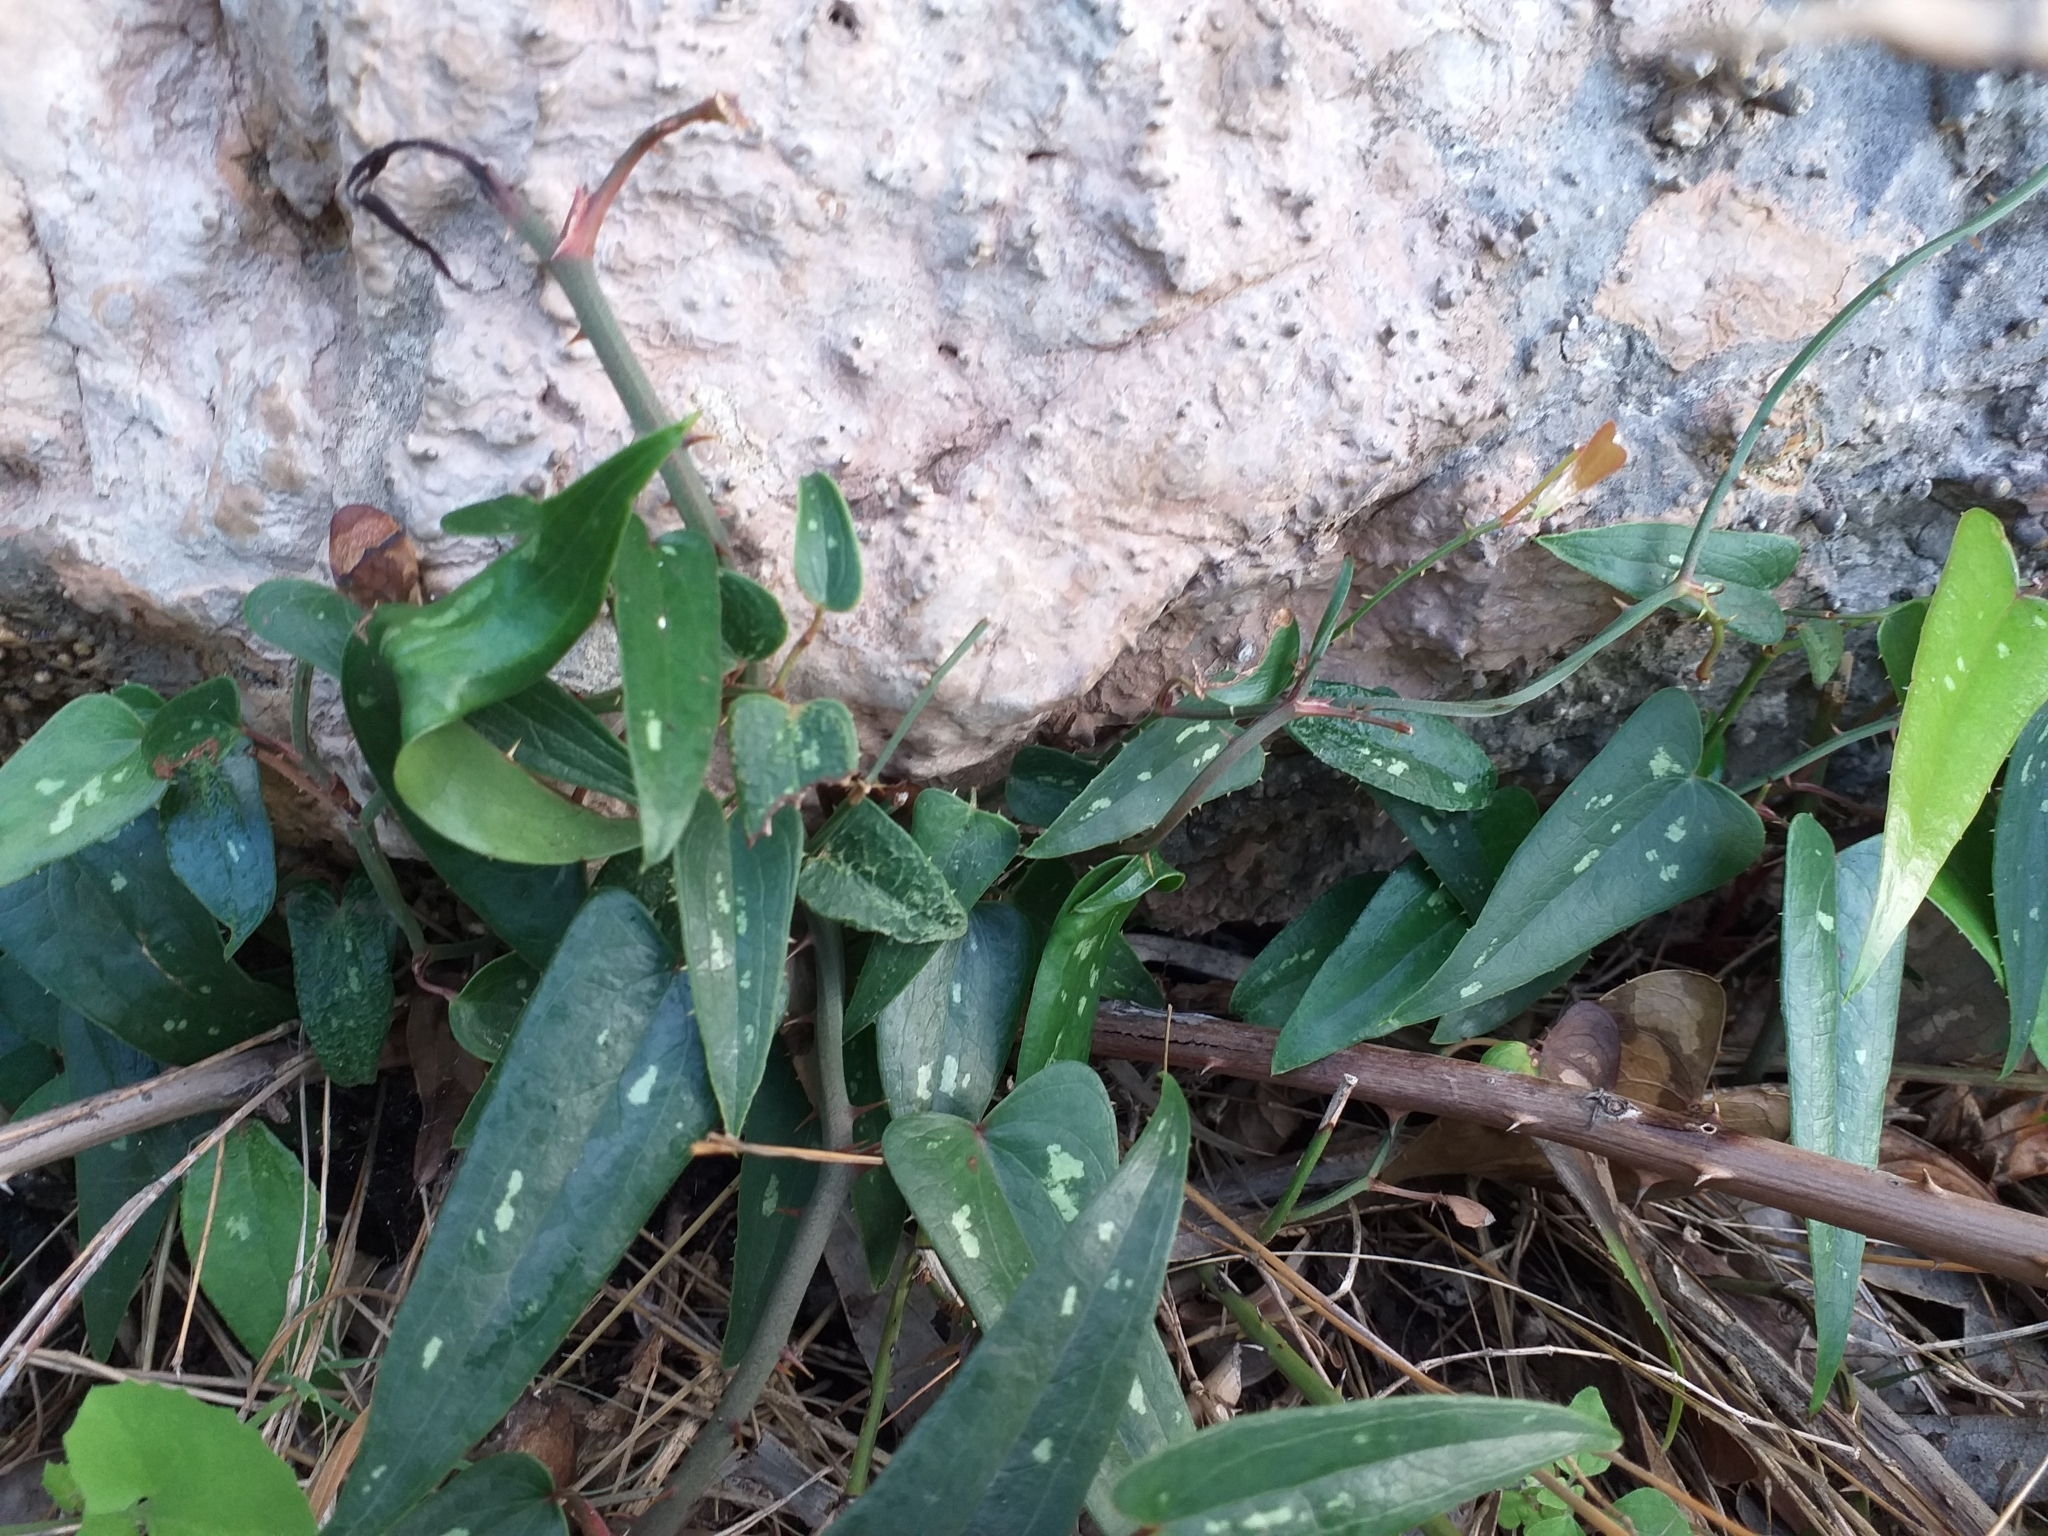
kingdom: Plantae
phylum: Tracheophyta
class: Liliopsida
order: Liliales
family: Smilacaceae
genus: Smilax
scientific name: Smilax aspera
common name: Common smilax
